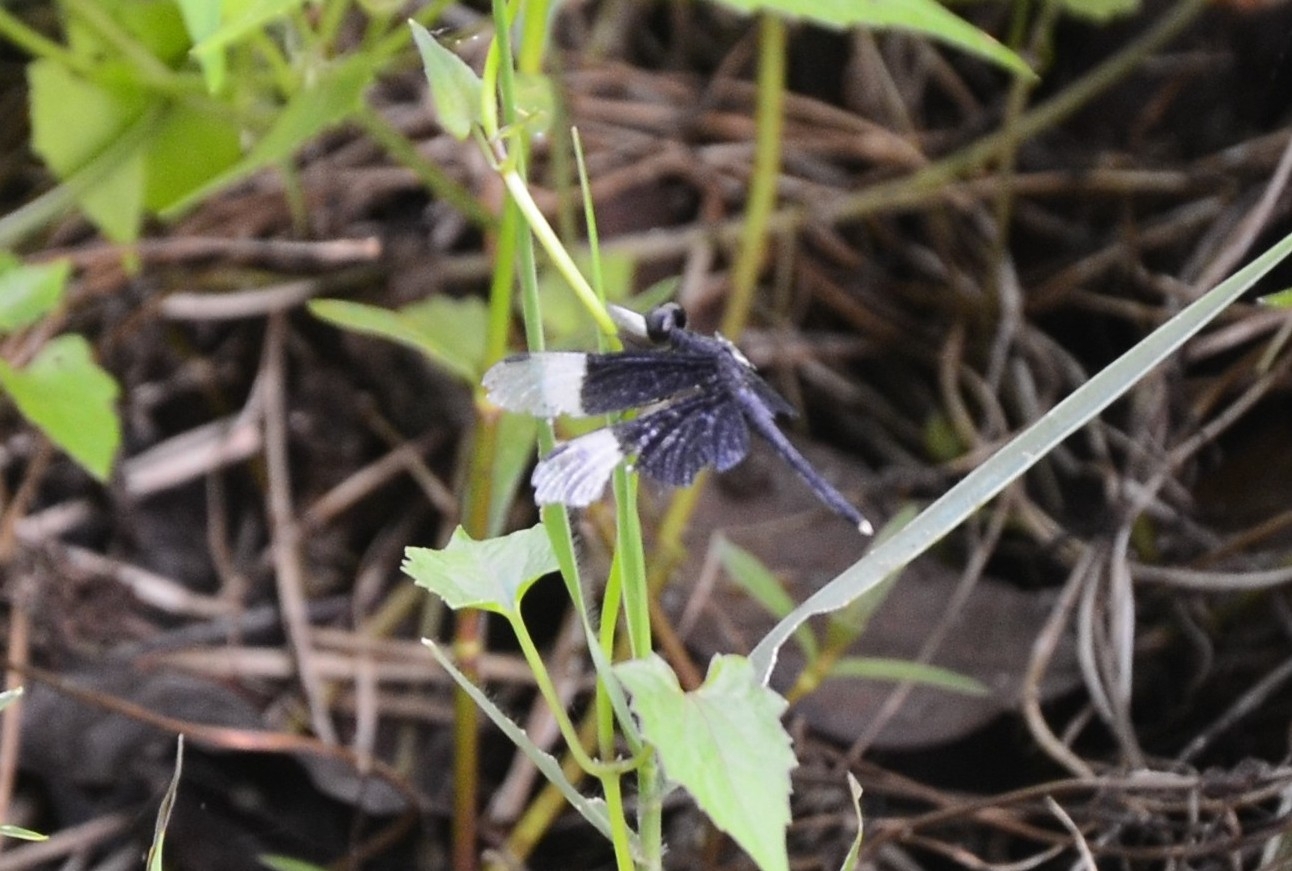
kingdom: Animalia
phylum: Arthropoda
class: Insecta
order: Odonata
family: Libellulidae
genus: Neurothemis
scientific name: Neurothemis tullia
